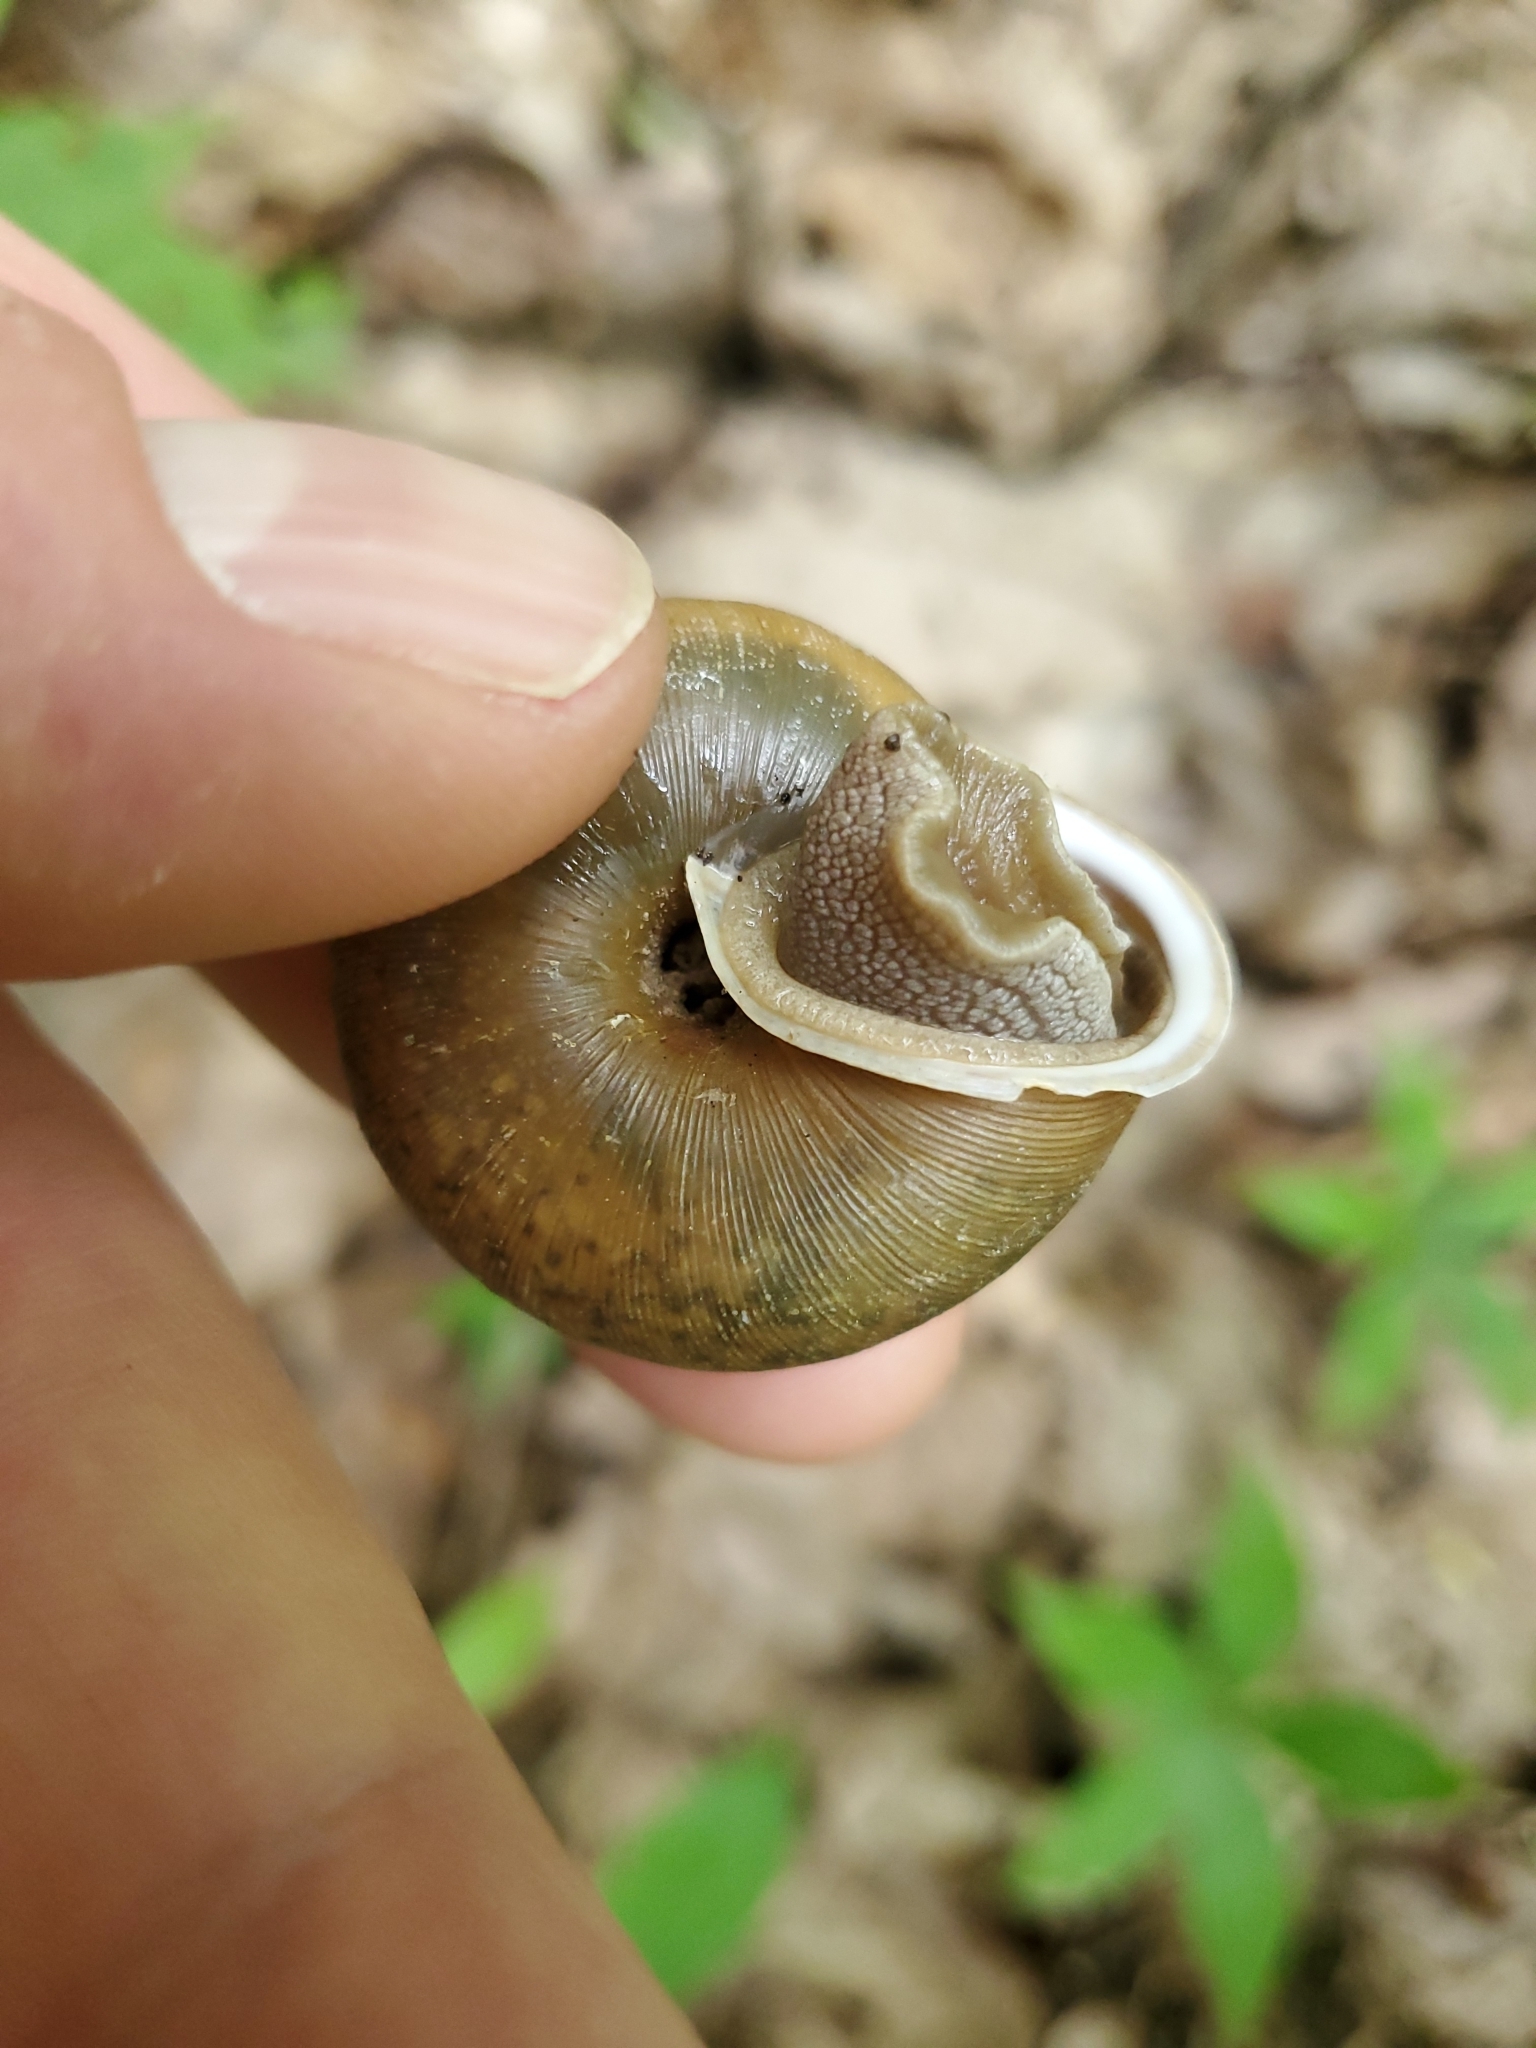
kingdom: Animalia
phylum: Mollusca
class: Gastropoda
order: Stylommatophora
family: Polygyridae
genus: Mesodon
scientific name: Mesodon thyroidus
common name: White-lip globe
